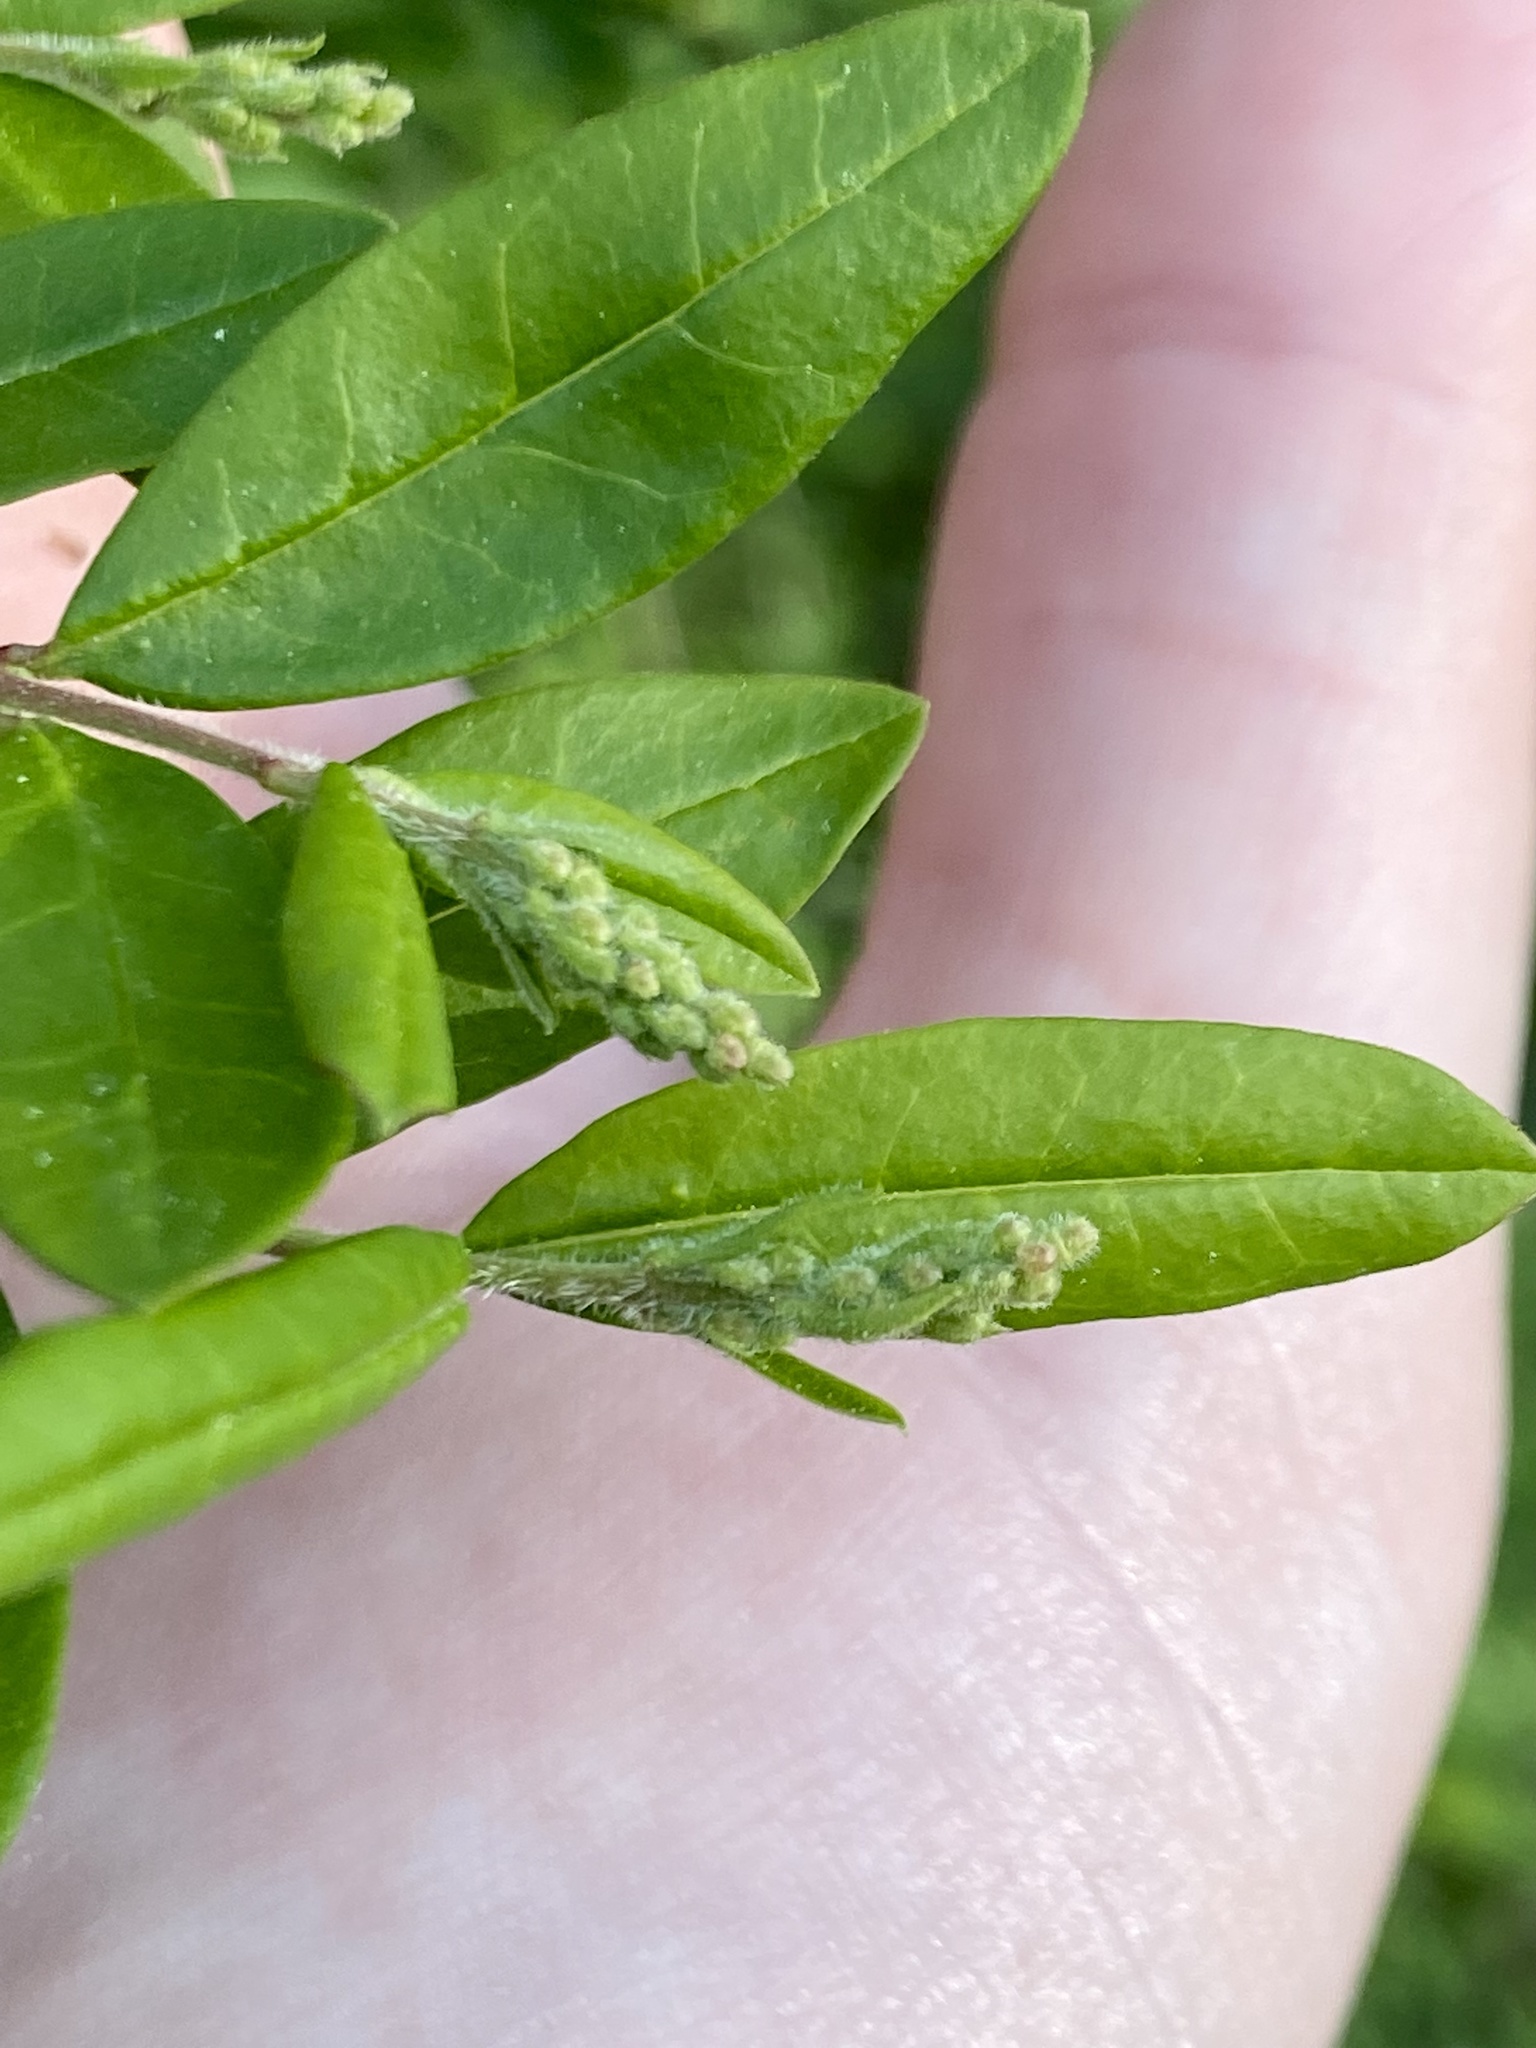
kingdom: Plantae
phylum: Tracheophyta
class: Magnoliopsida
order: Lamiales
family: Oleaceae
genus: Ligustrum
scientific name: Ligustrum obtusifolium
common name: Border privet
